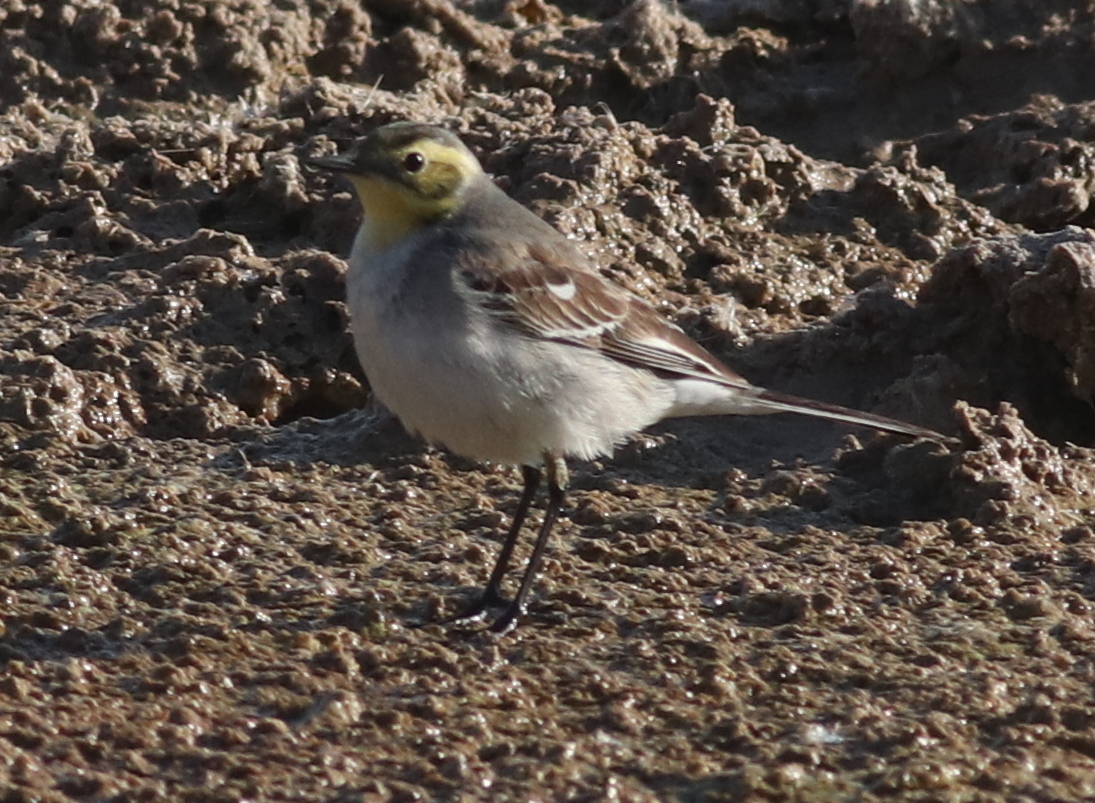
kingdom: Animalia
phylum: Chordata
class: Aves
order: Passeriformes
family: Motacillidae
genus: Motacilla
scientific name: Motacilla citreola
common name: Citrine wagtail
